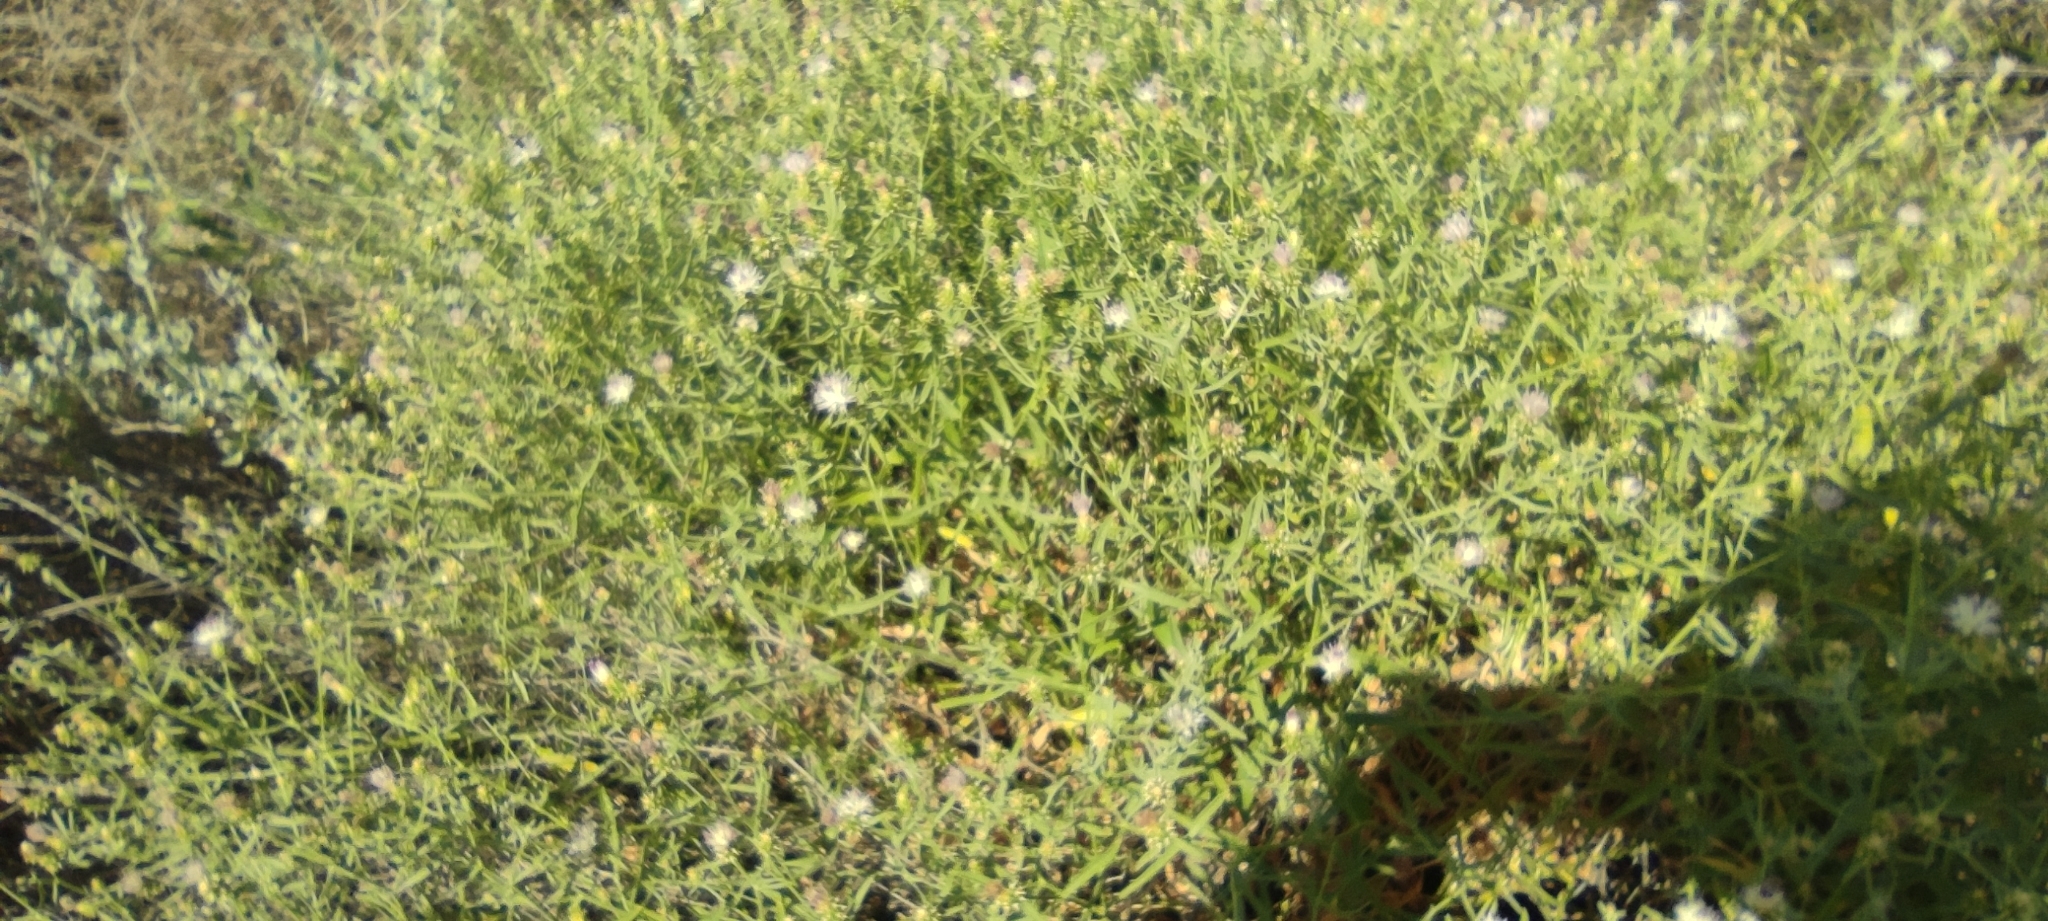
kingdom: Plantae
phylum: Tracheophyta
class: Magnoliopsida
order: Asterales
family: Asteraceae
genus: Centaurea
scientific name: Centaurea aspera
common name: Rough star-thistle
